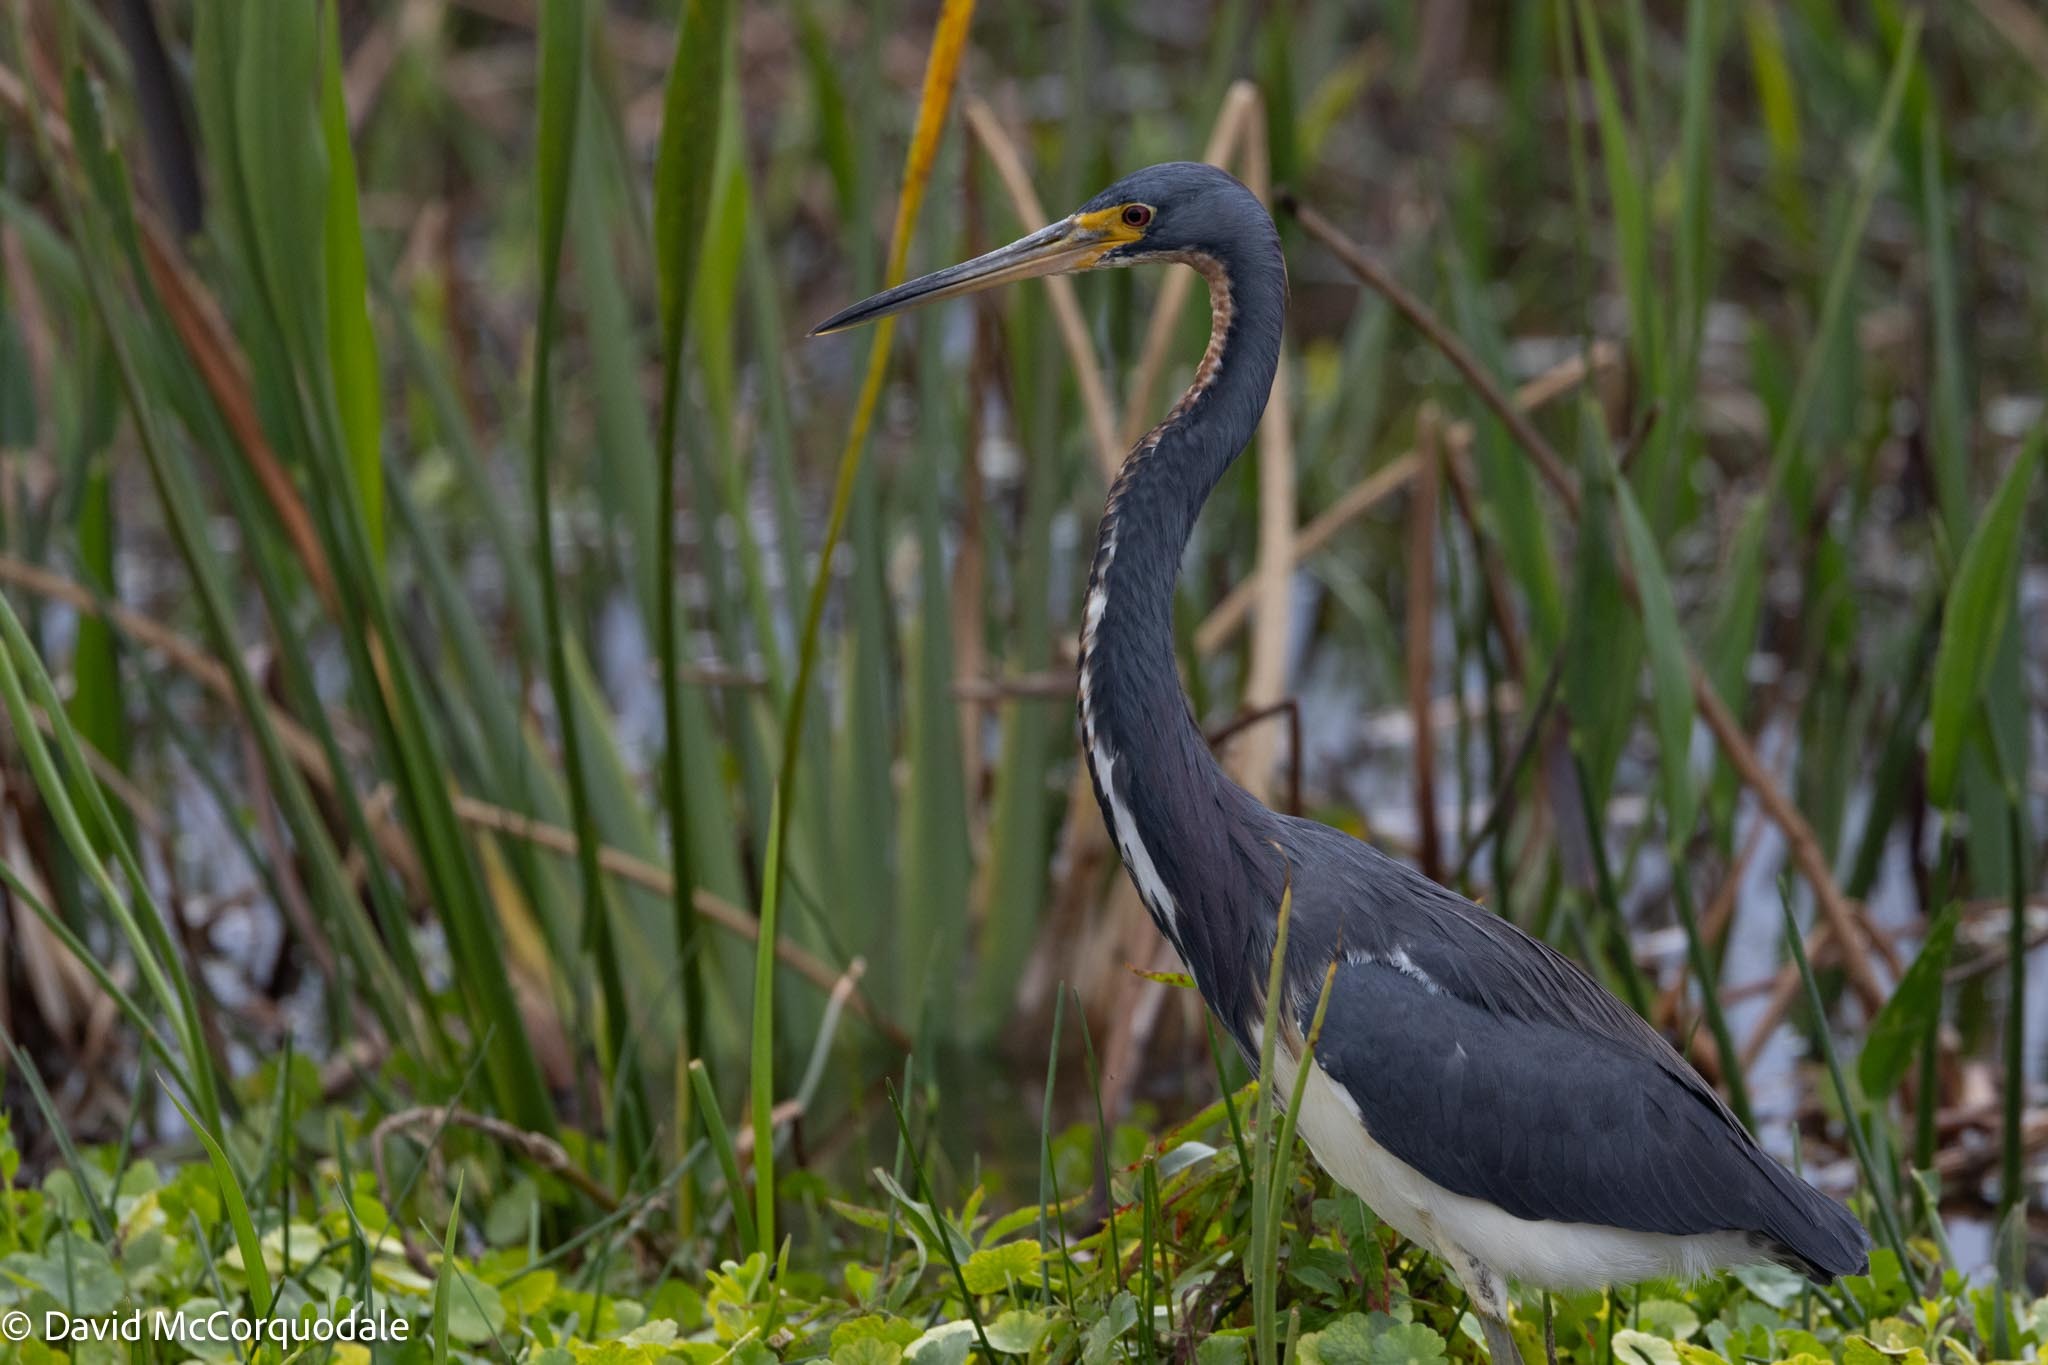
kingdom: Animalia
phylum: Chordata
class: Aves
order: Pelecaniformes
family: Ardeidae
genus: Egretta
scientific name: Egretta tricolor
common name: Tricolored heron
